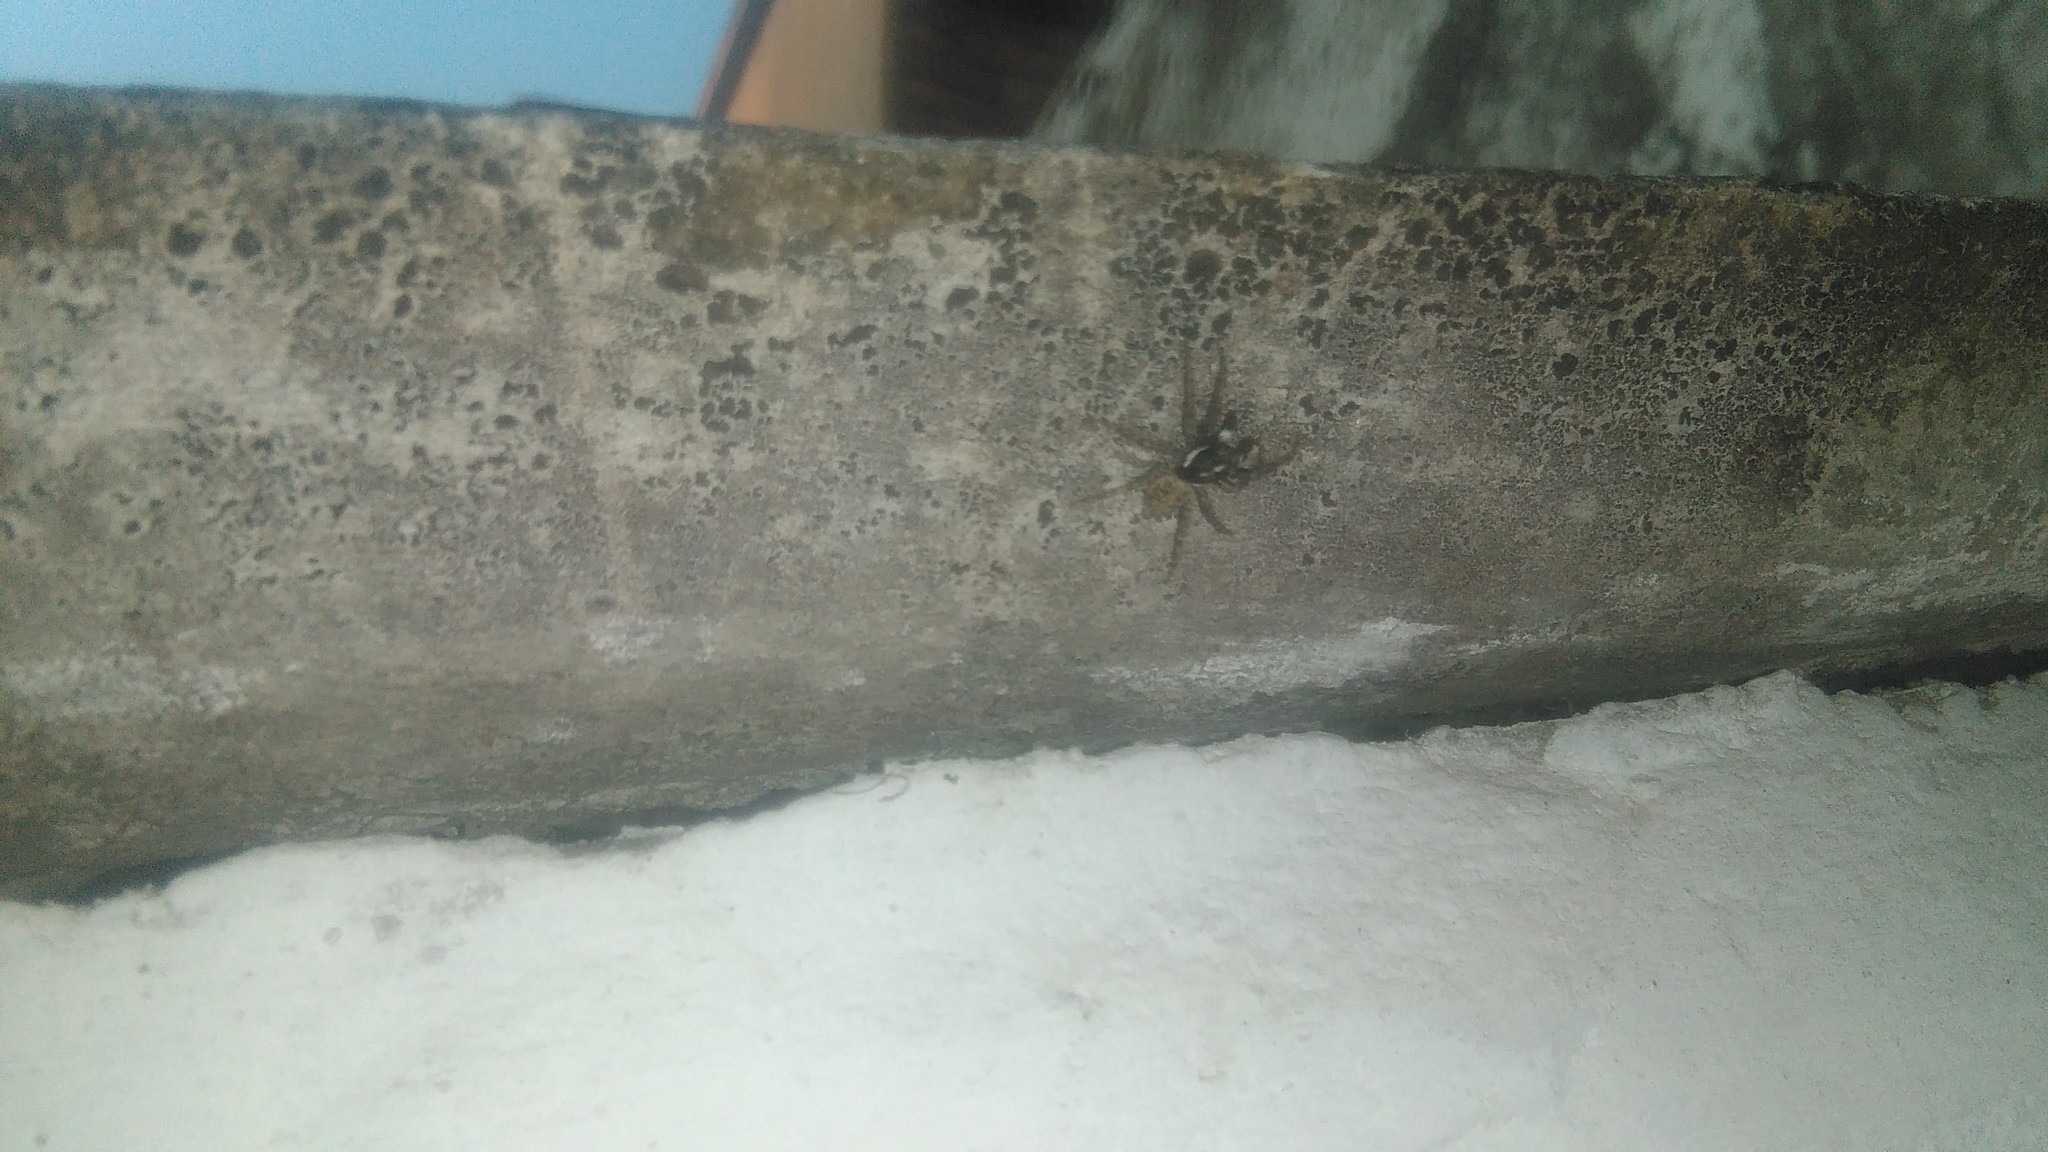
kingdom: Animalia
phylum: Arthropoda
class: Arachnida
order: Araneae
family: Salticidae
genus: Menemerus
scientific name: Menemerus semilimbatus
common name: Jumping spider
